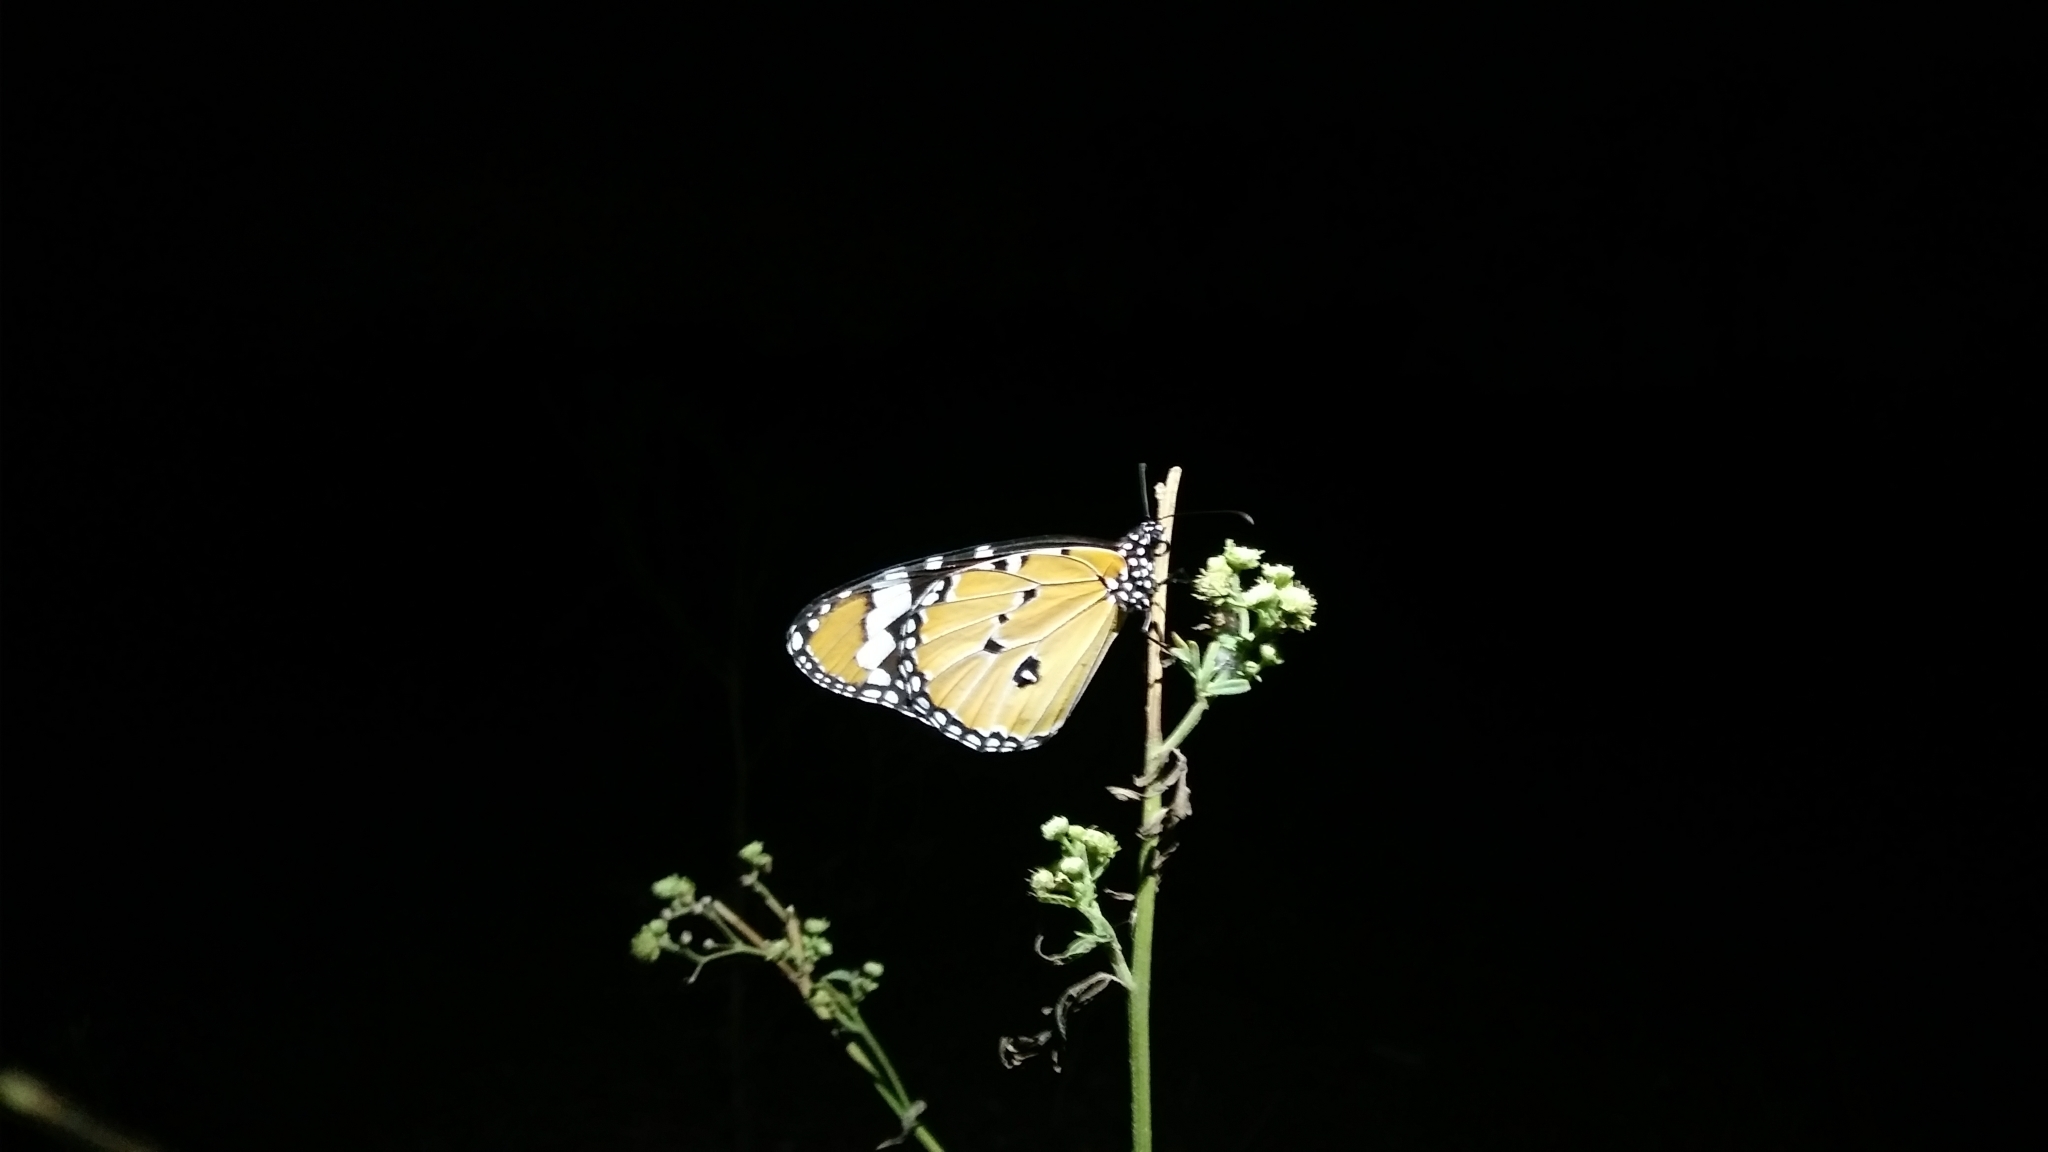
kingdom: Animalia
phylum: Arthropoda
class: Insecta
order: Lepidoptera
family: Nymphalidae
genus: Danaus
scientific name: Danaus chrysippus
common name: Plain tiger
